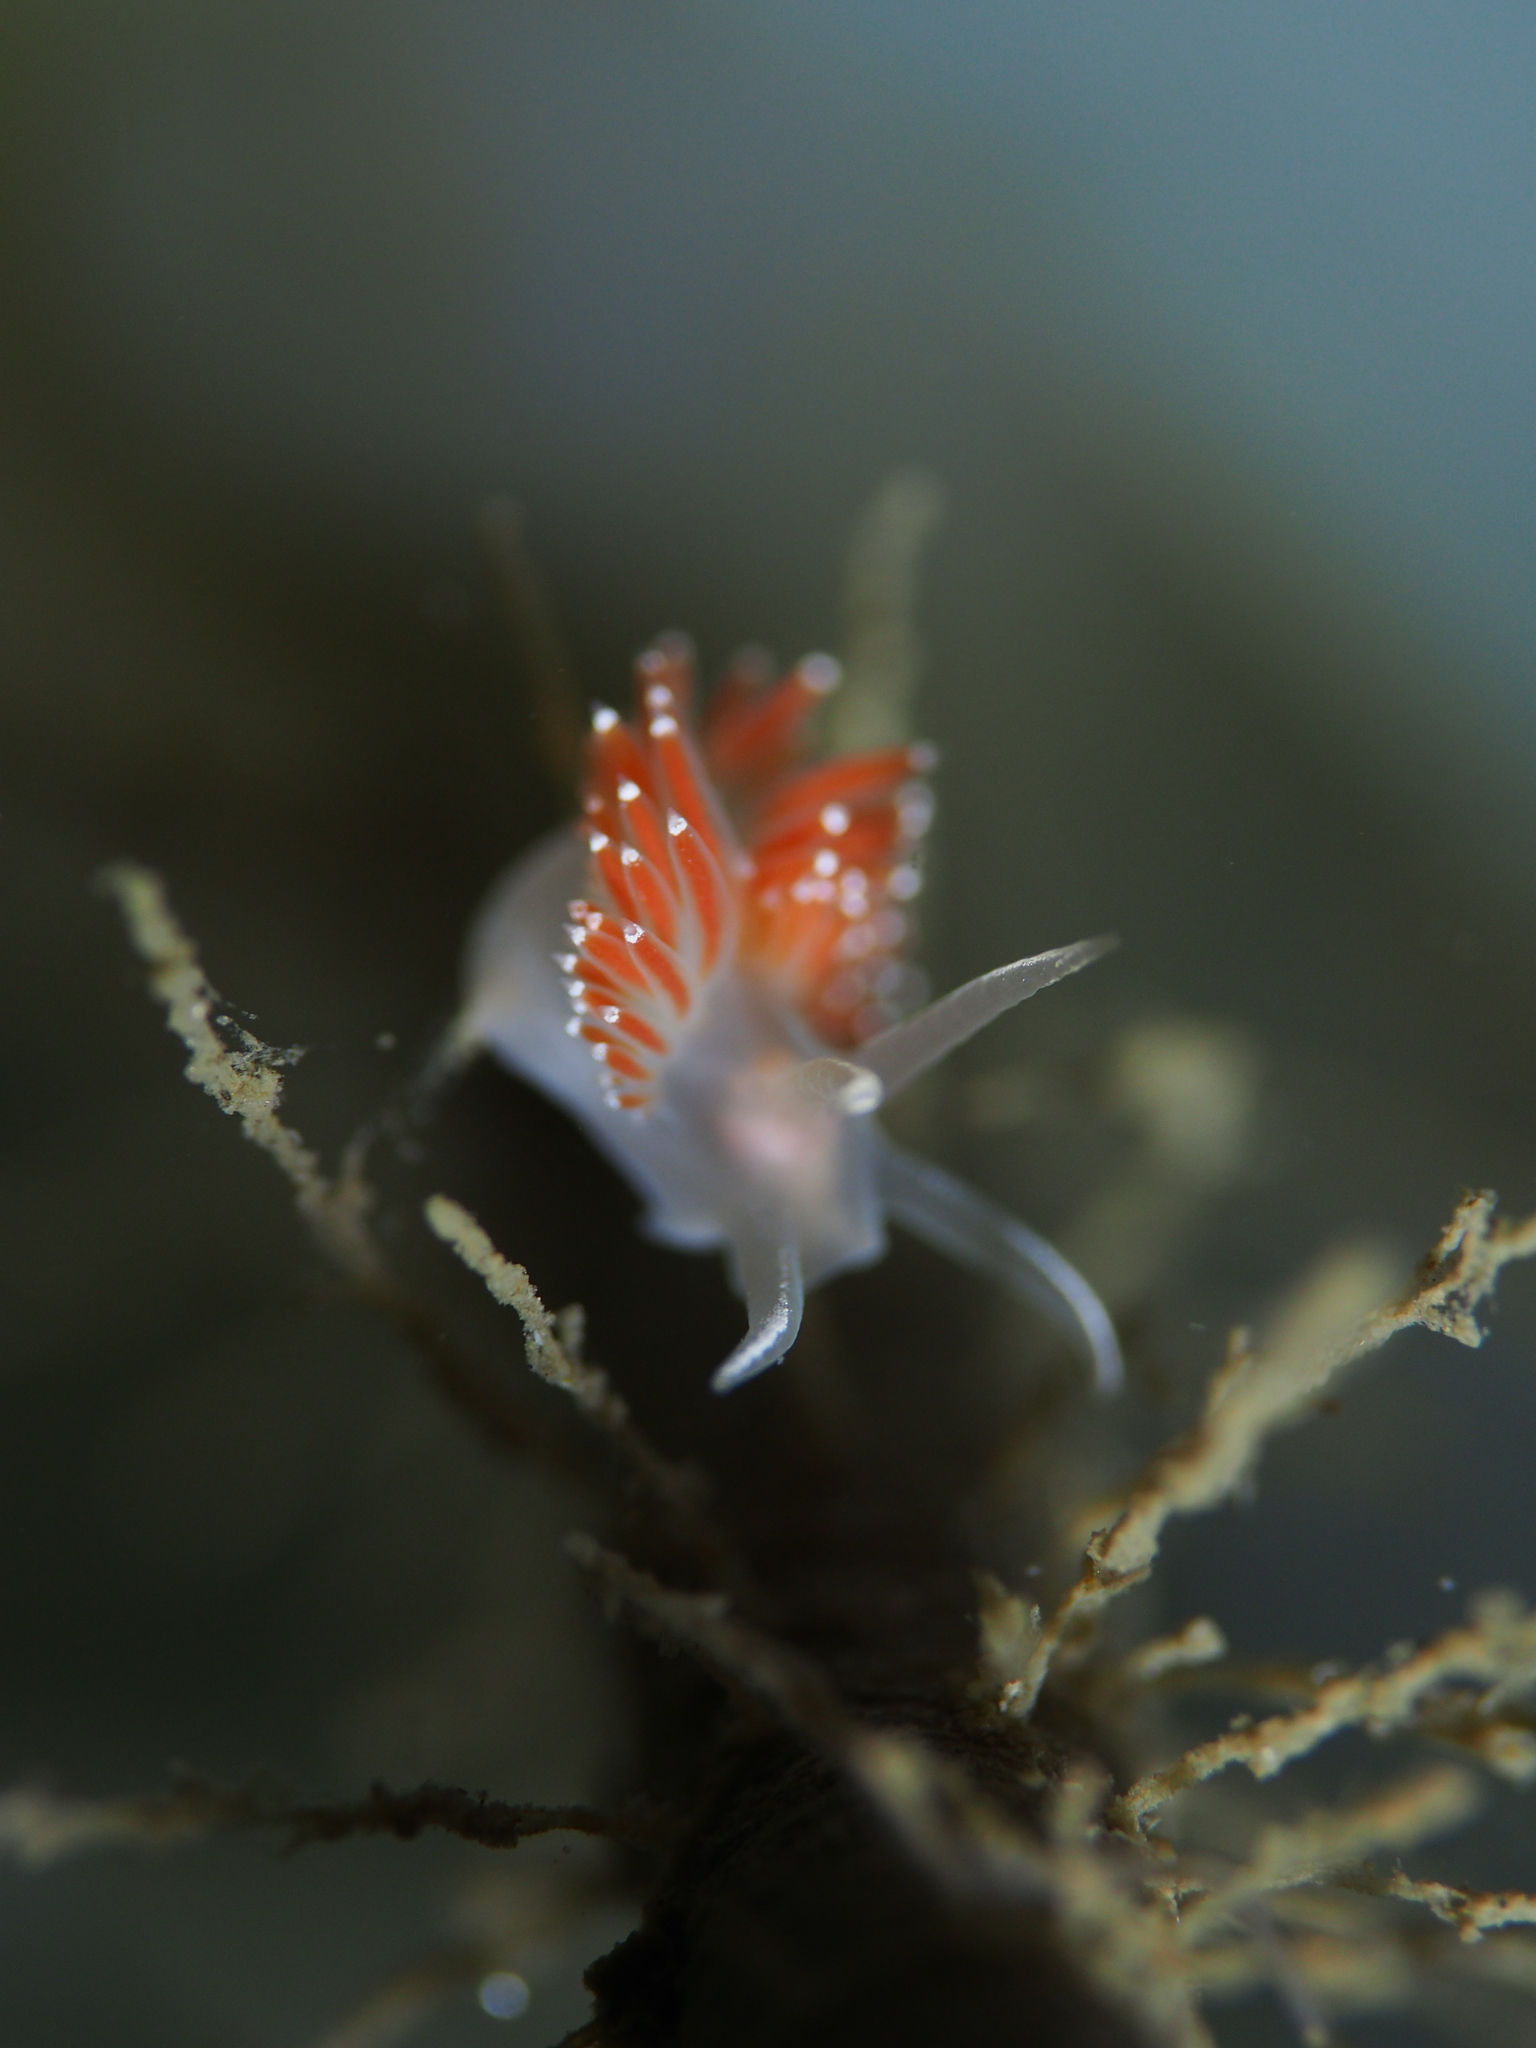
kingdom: Animalia
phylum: Mollusca
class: Gastropoda
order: Nudibranchia
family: Coryphellidae
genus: Coryphella
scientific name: Coryphella verrucosa
